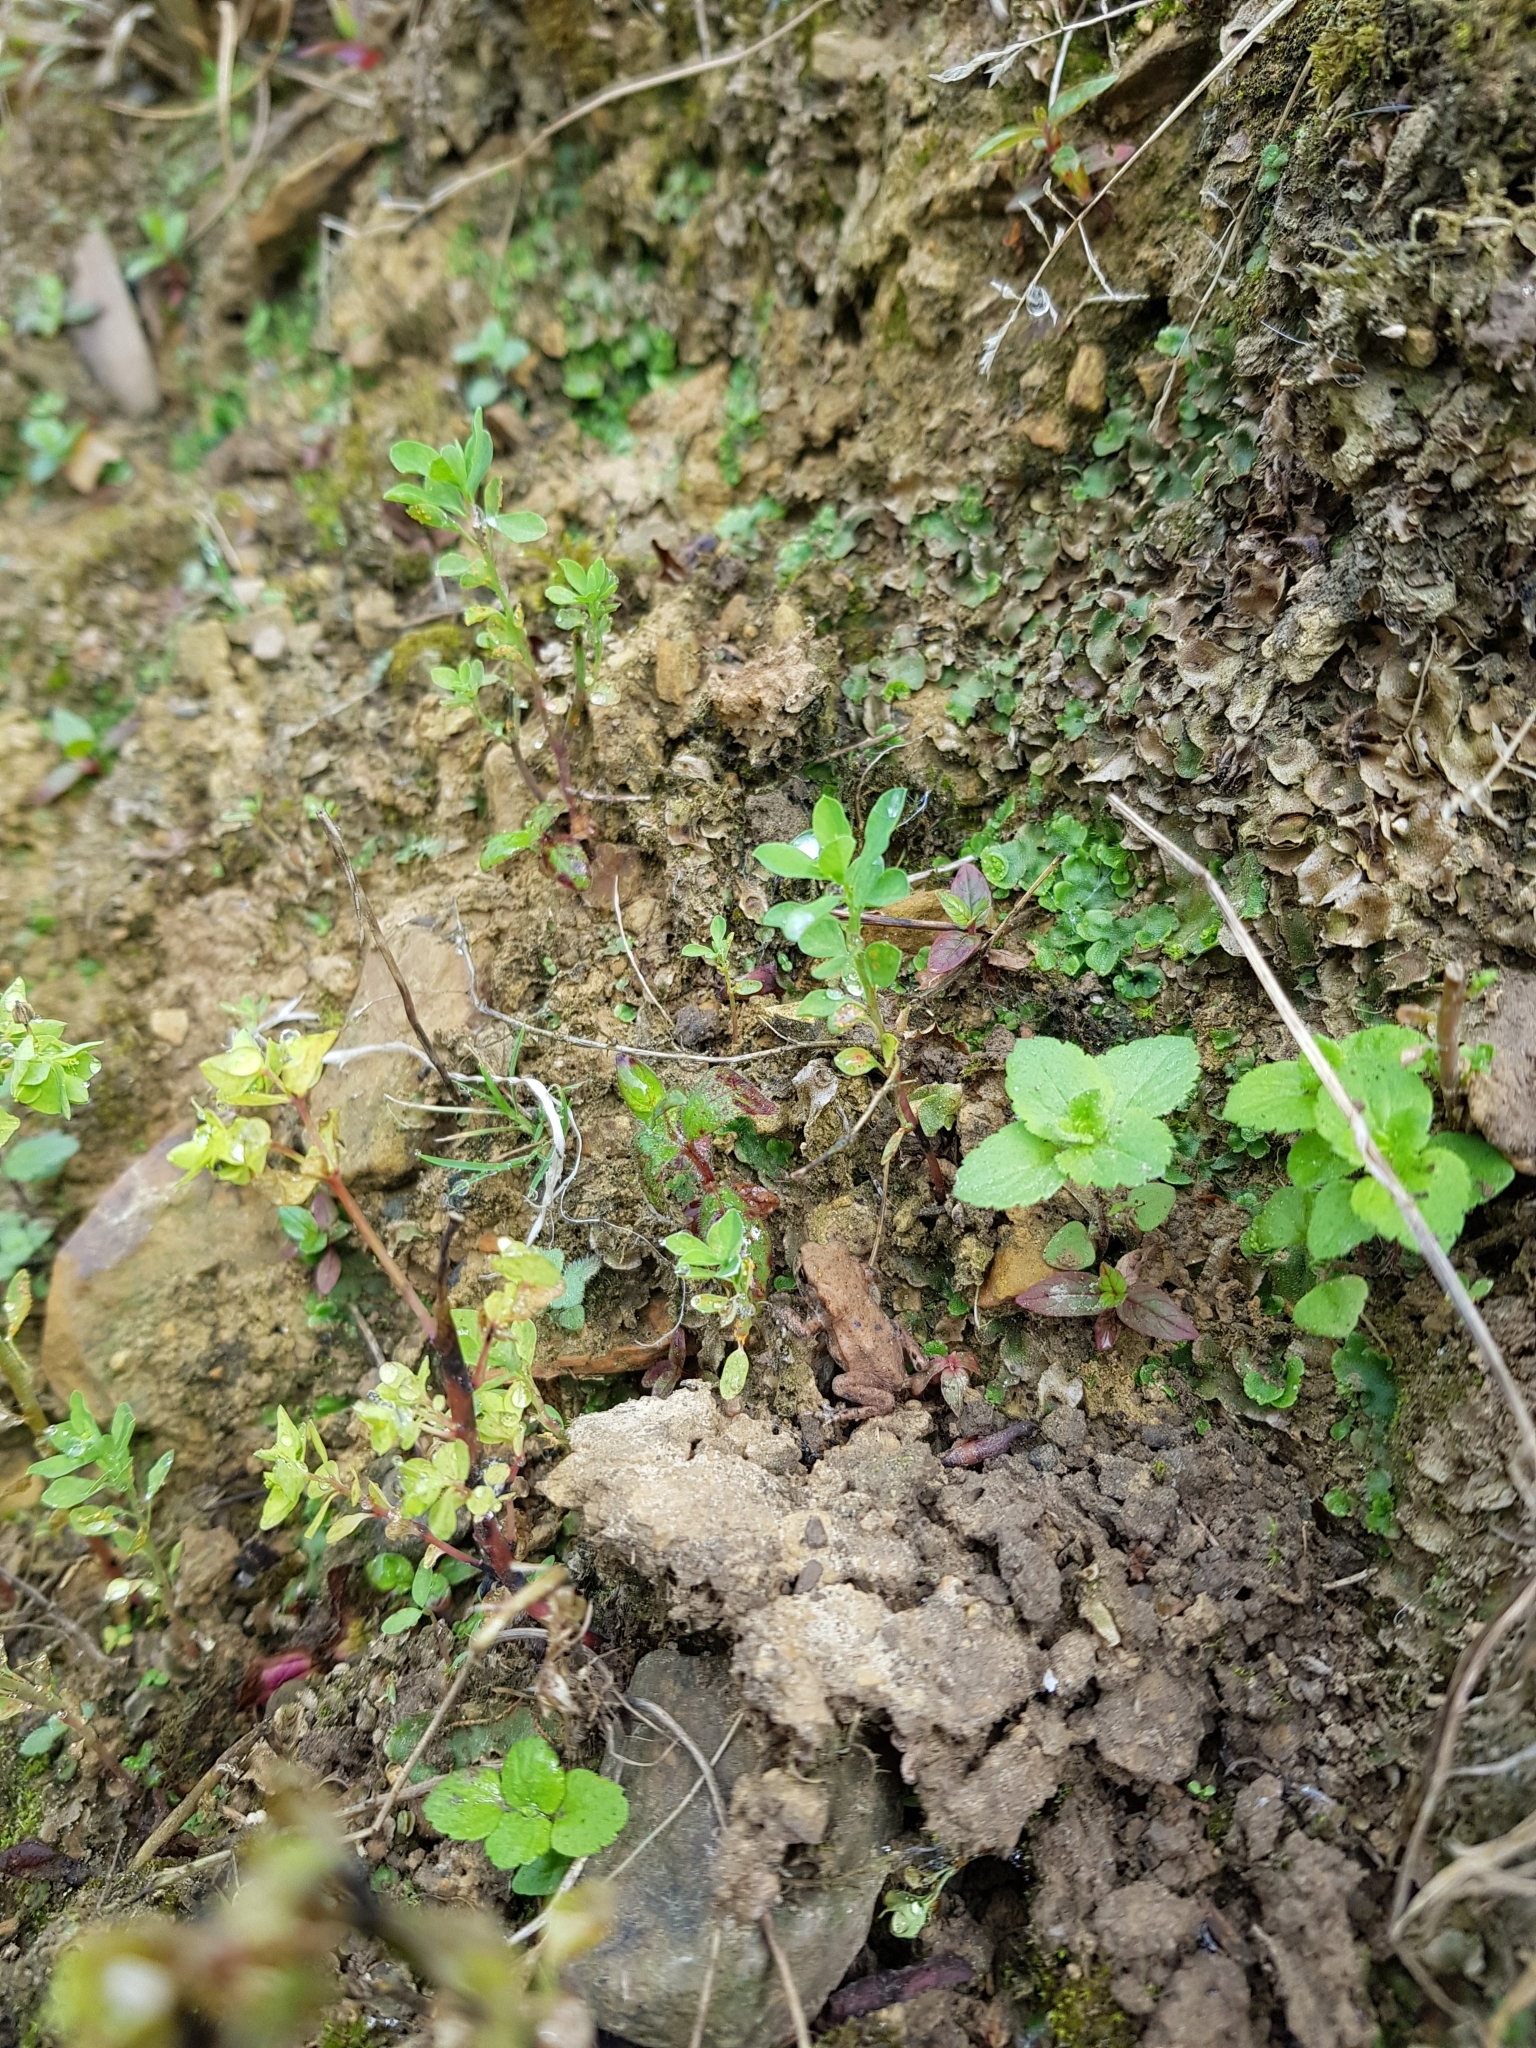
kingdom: Animalia
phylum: Chordata
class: Amphibia
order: Anura
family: Bufonidae
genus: Bufo
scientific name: Bufo bufo
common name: Common toad
